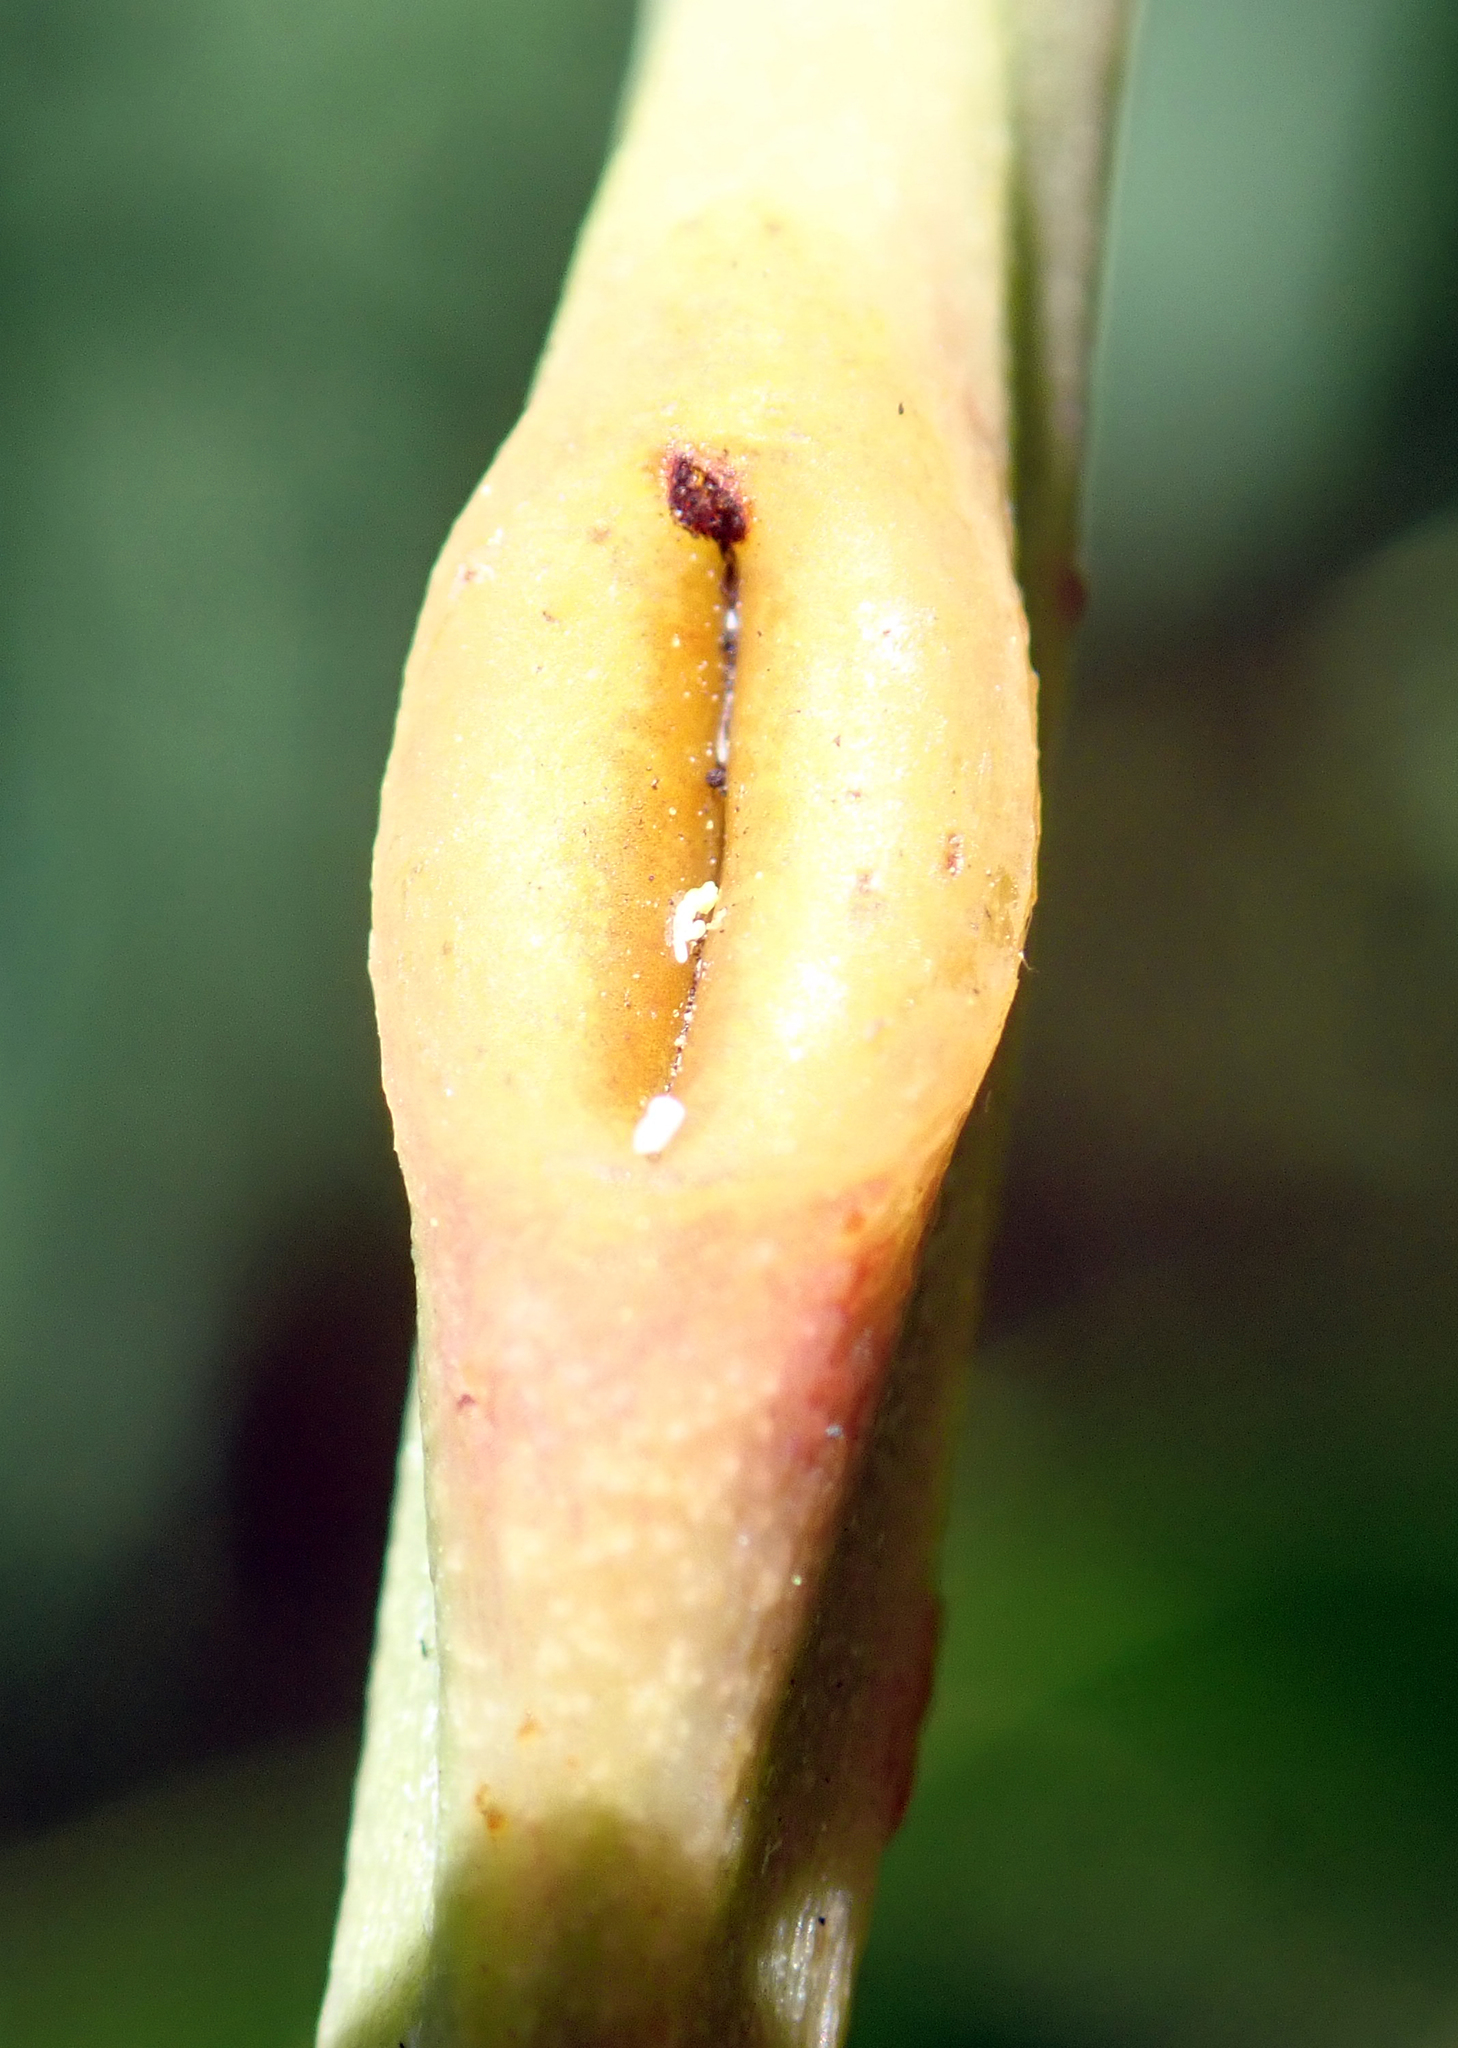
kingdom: Plantae
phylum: Tracheophyta
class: Magnoliopsida
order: Fabales
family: Fabaceae
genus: Acacia
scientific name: Acacia elata
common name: Cedar wattle
